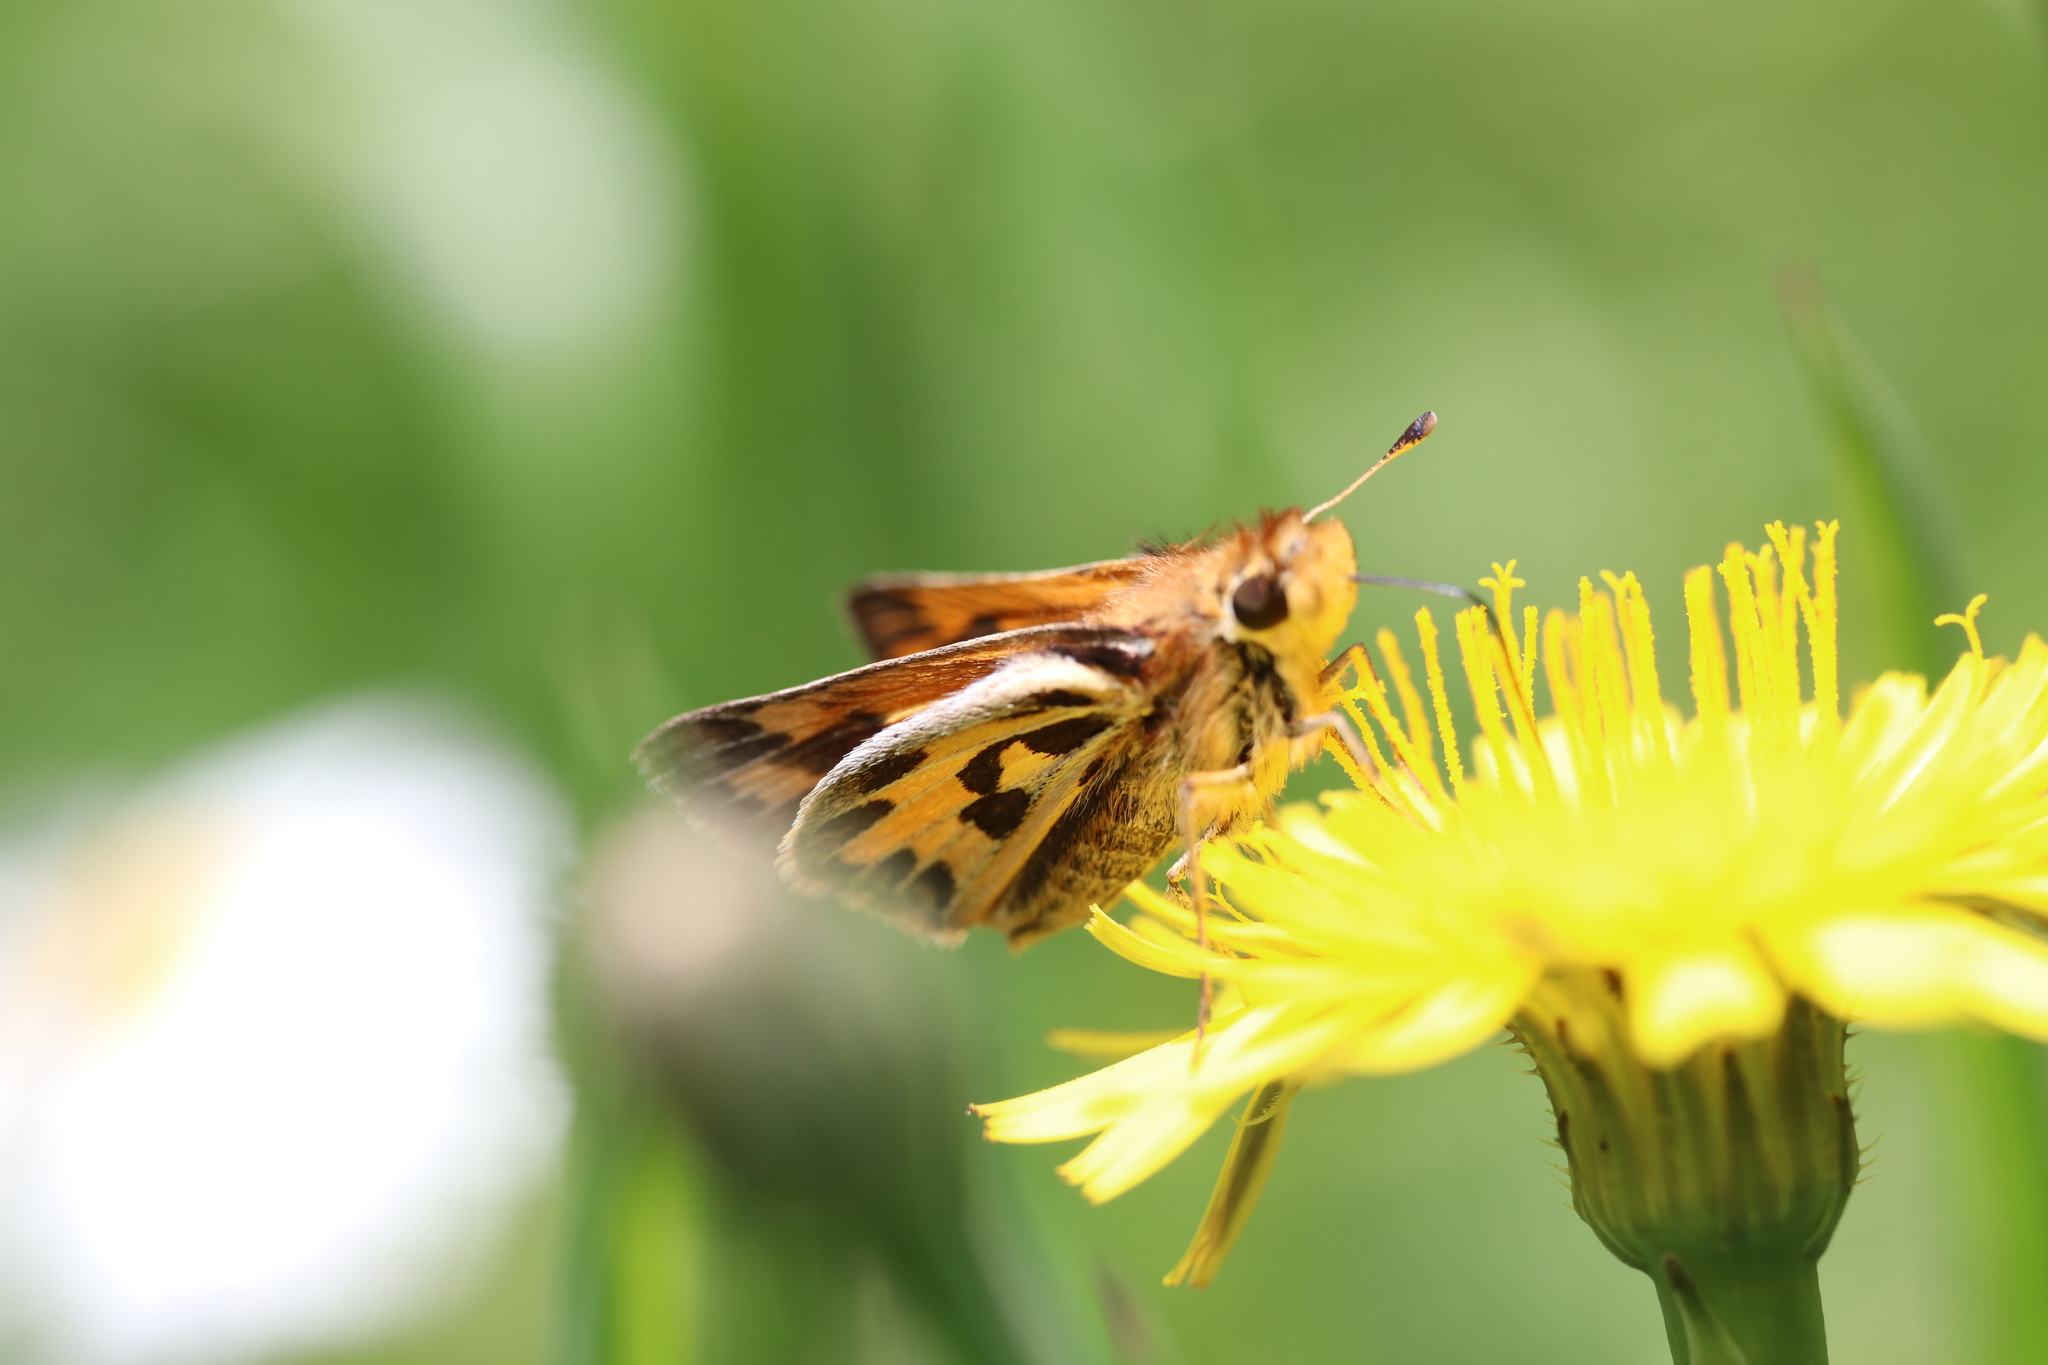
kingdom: Animalia
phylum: Arthropoda
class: Insecta
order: Lepidoptera
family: Hesperiidae
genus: Hylephila
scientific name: Hylephila fasciolata
